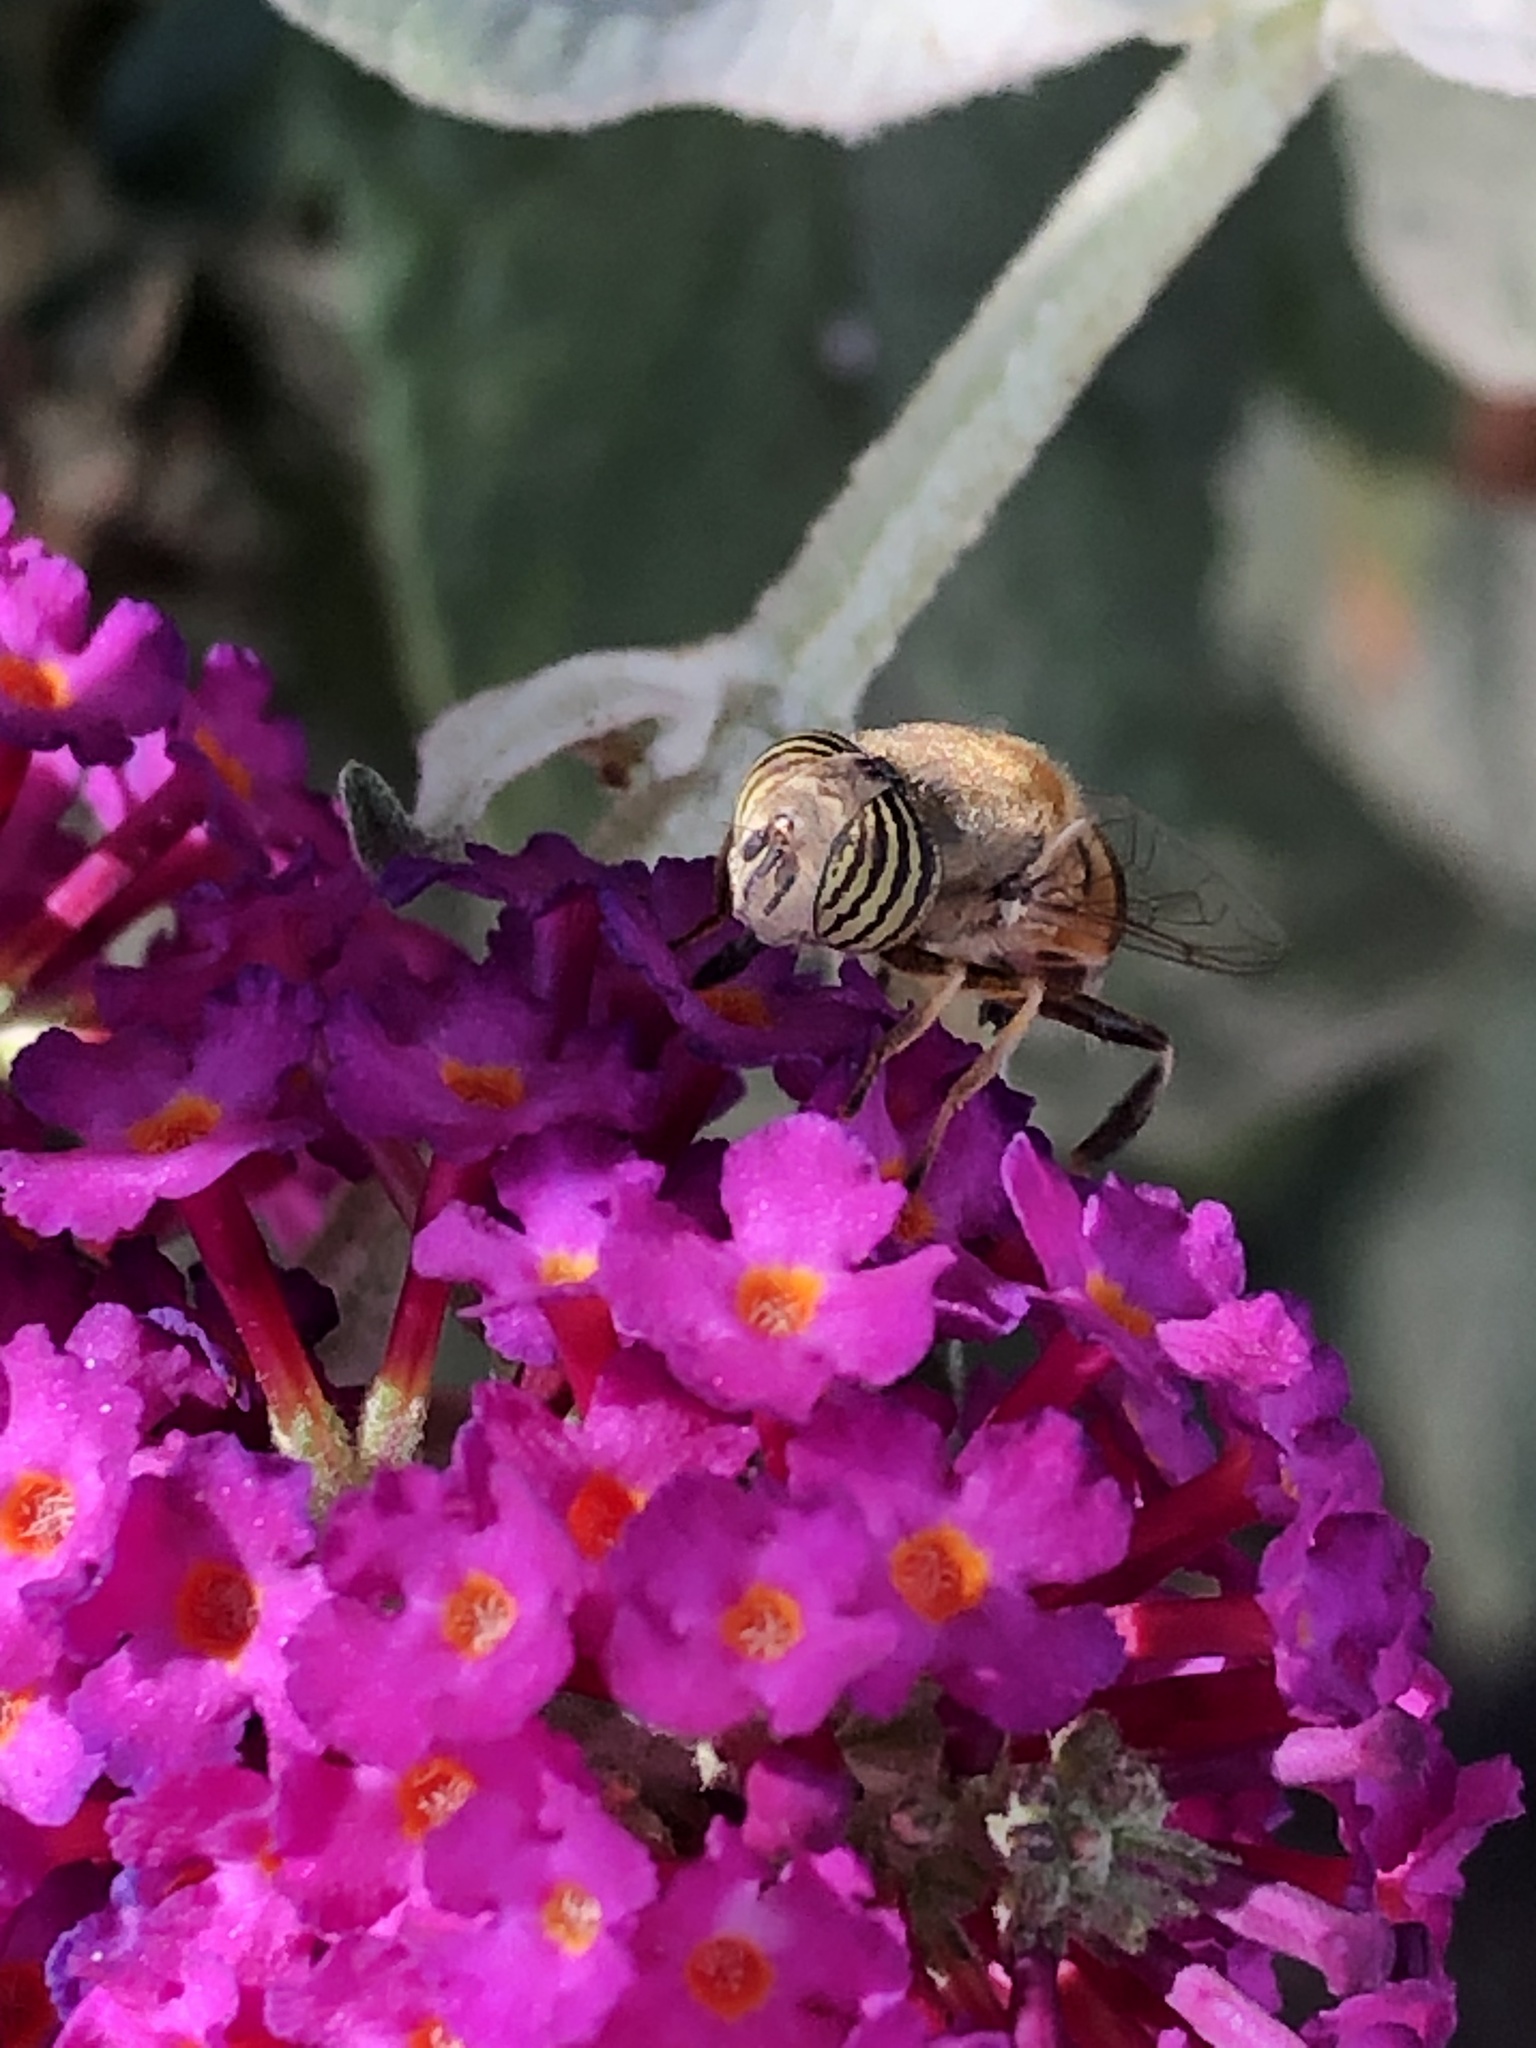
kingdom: Animalia
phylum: Arthropoda
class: Insecta
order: Diptera
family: Syrphidae
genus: Eristalinus
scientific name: Eristalinus taeniops
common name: Syrphid fly
